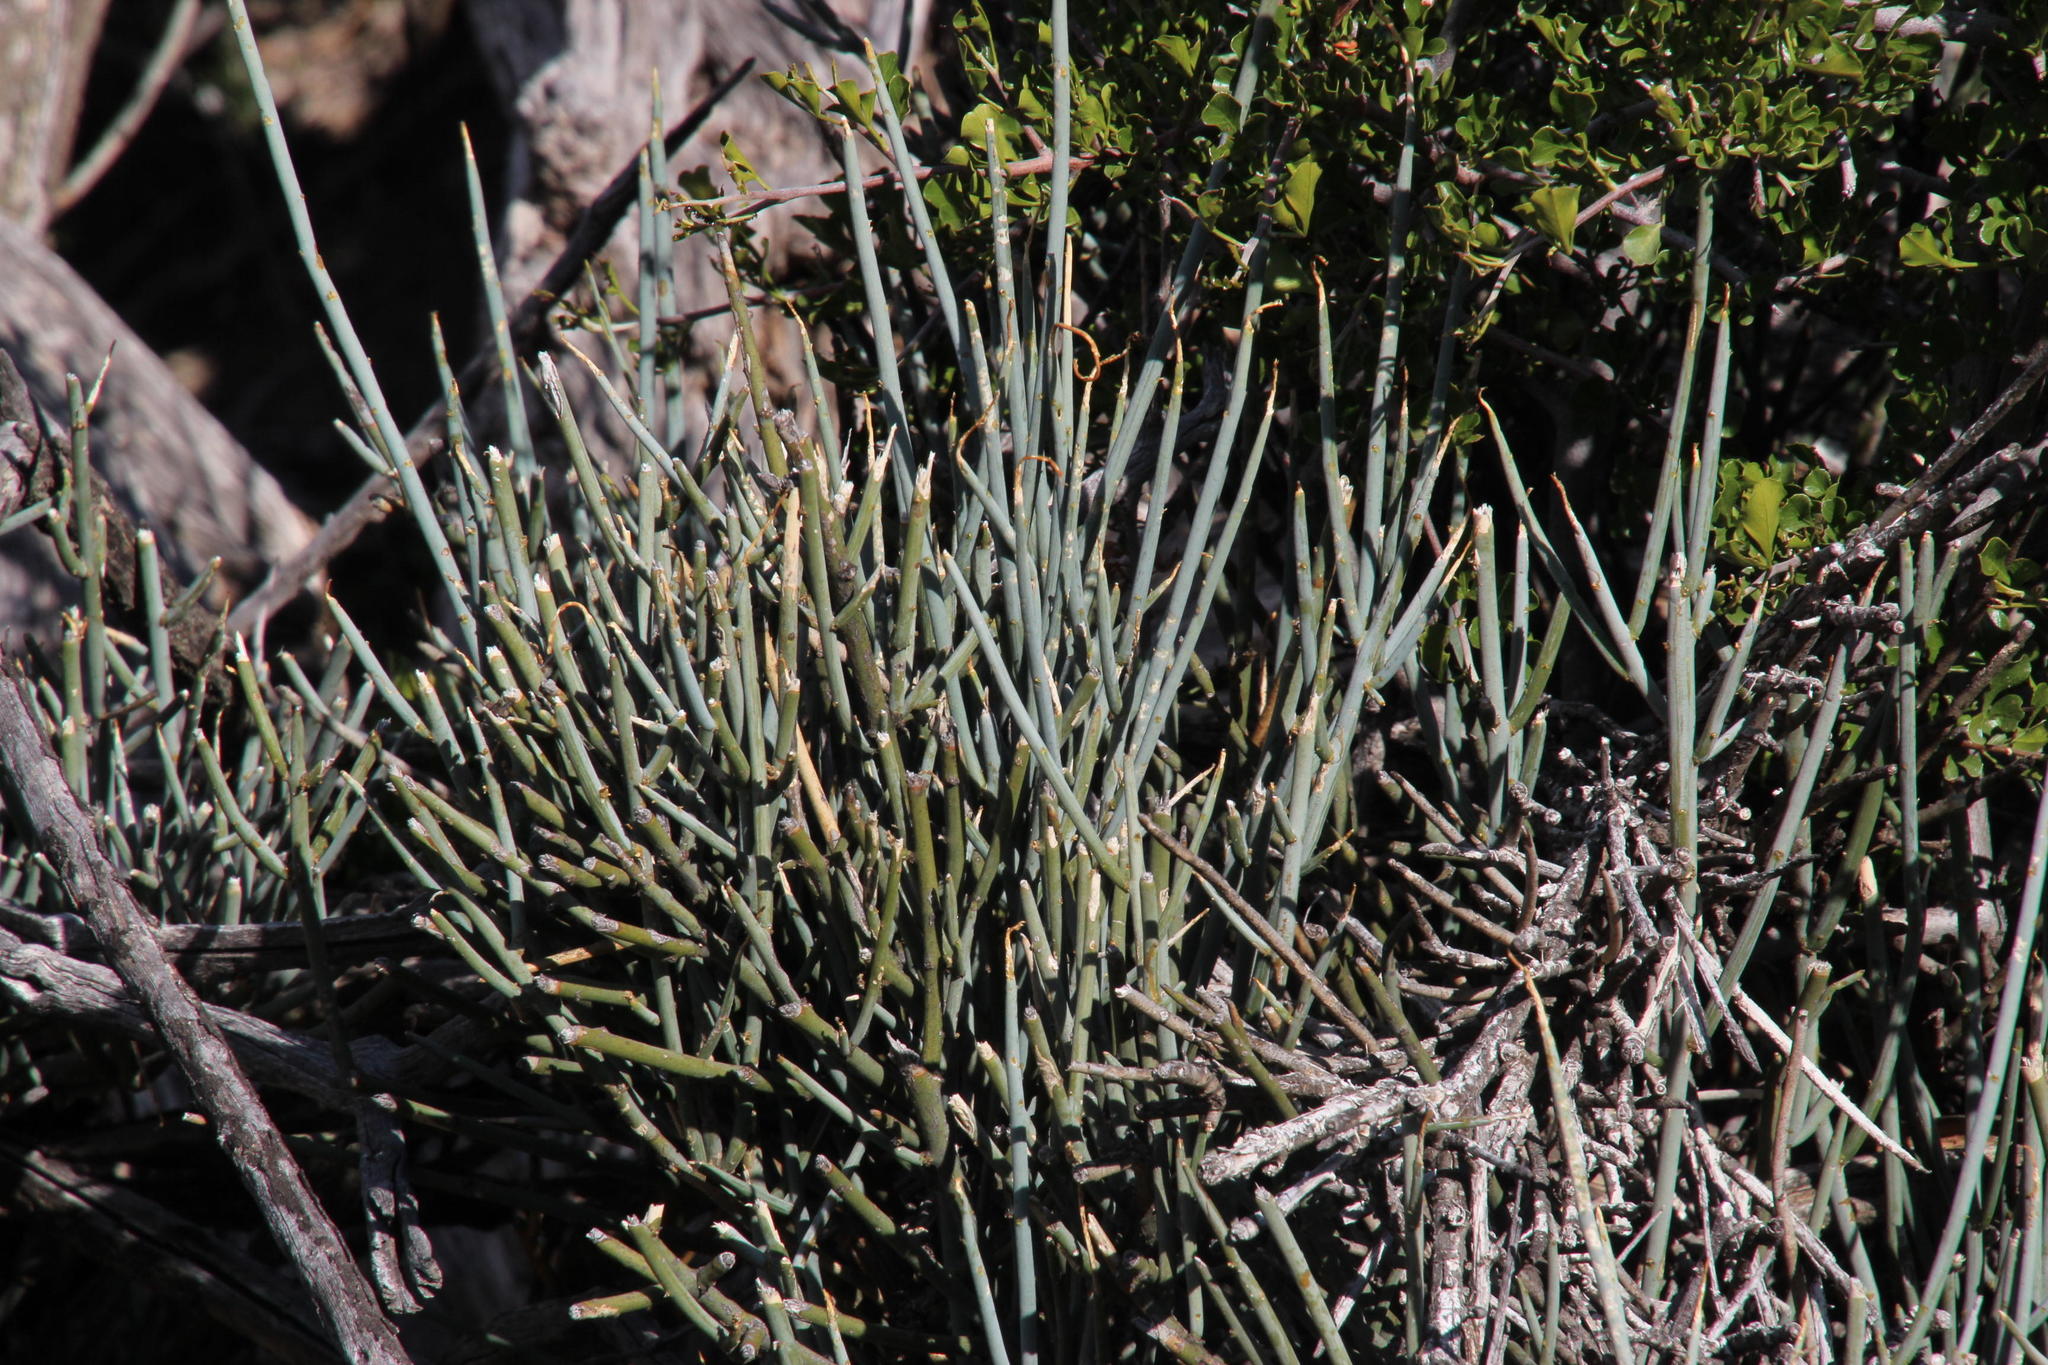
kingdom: Plantae
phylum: Tracheophyta
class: Magnoliopsida
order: Brassicales
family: Capparaceae
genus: Cadaba
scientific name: Cadaba aphylla
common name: Black storm
